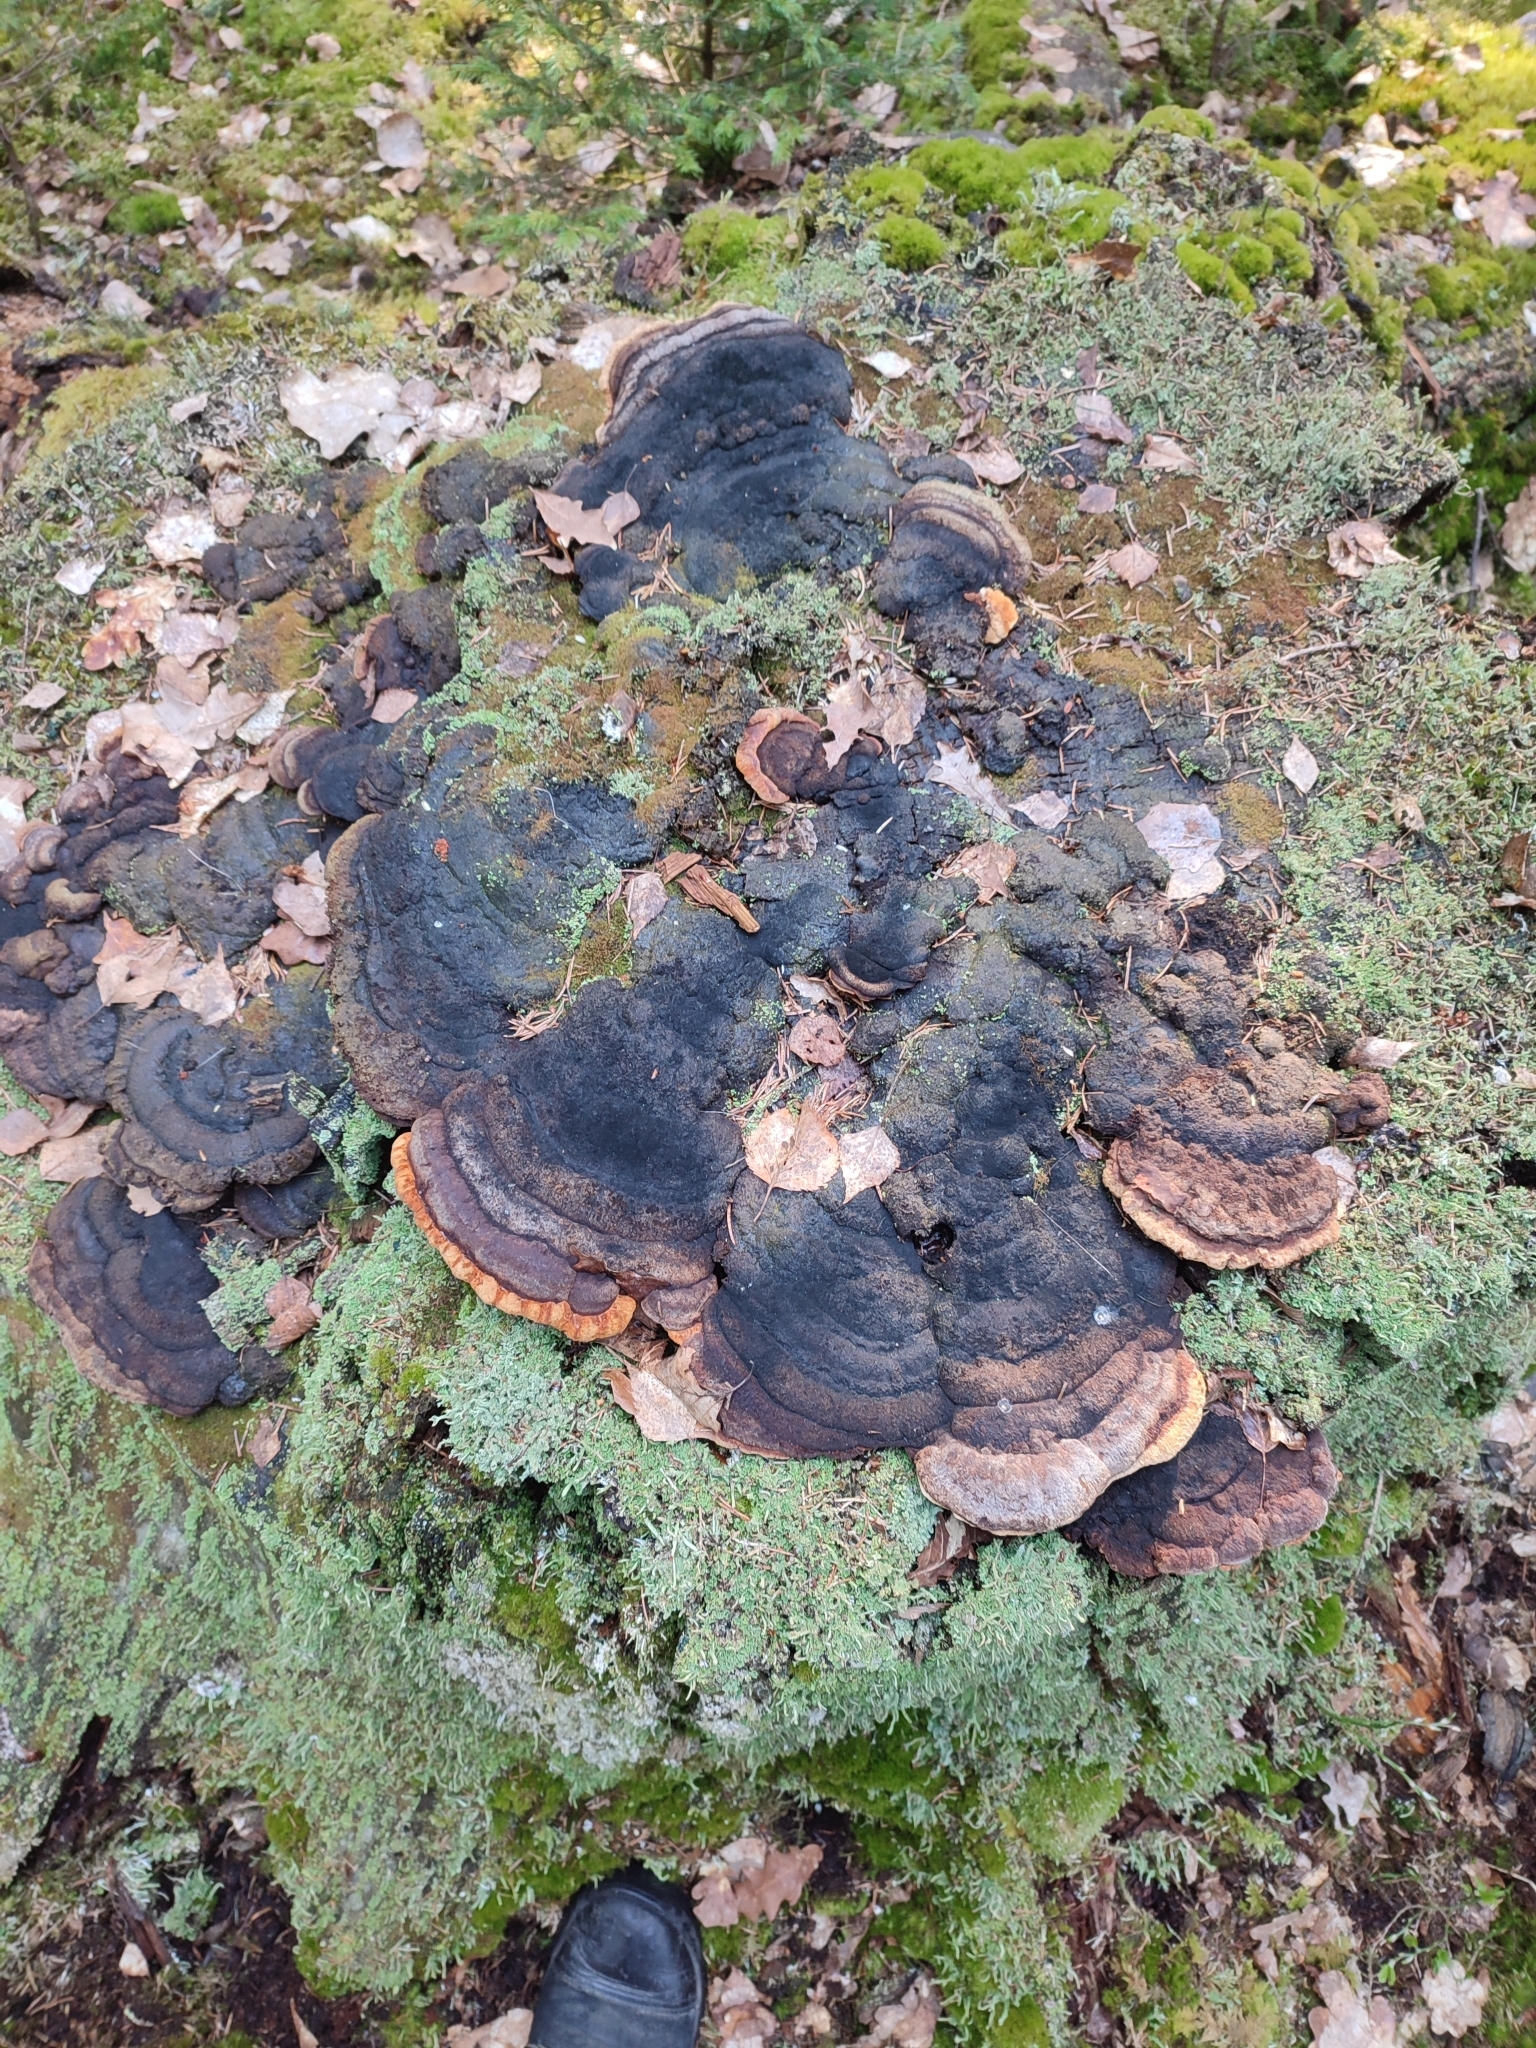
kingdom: Fungi
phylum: Basidiomycota
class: Agaricomycetes
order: Gloeophyllales
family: Gloeophyllaceae
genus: Gloeophyllum
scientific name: Gloeophyllum odoratum
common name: Anise mazegill
